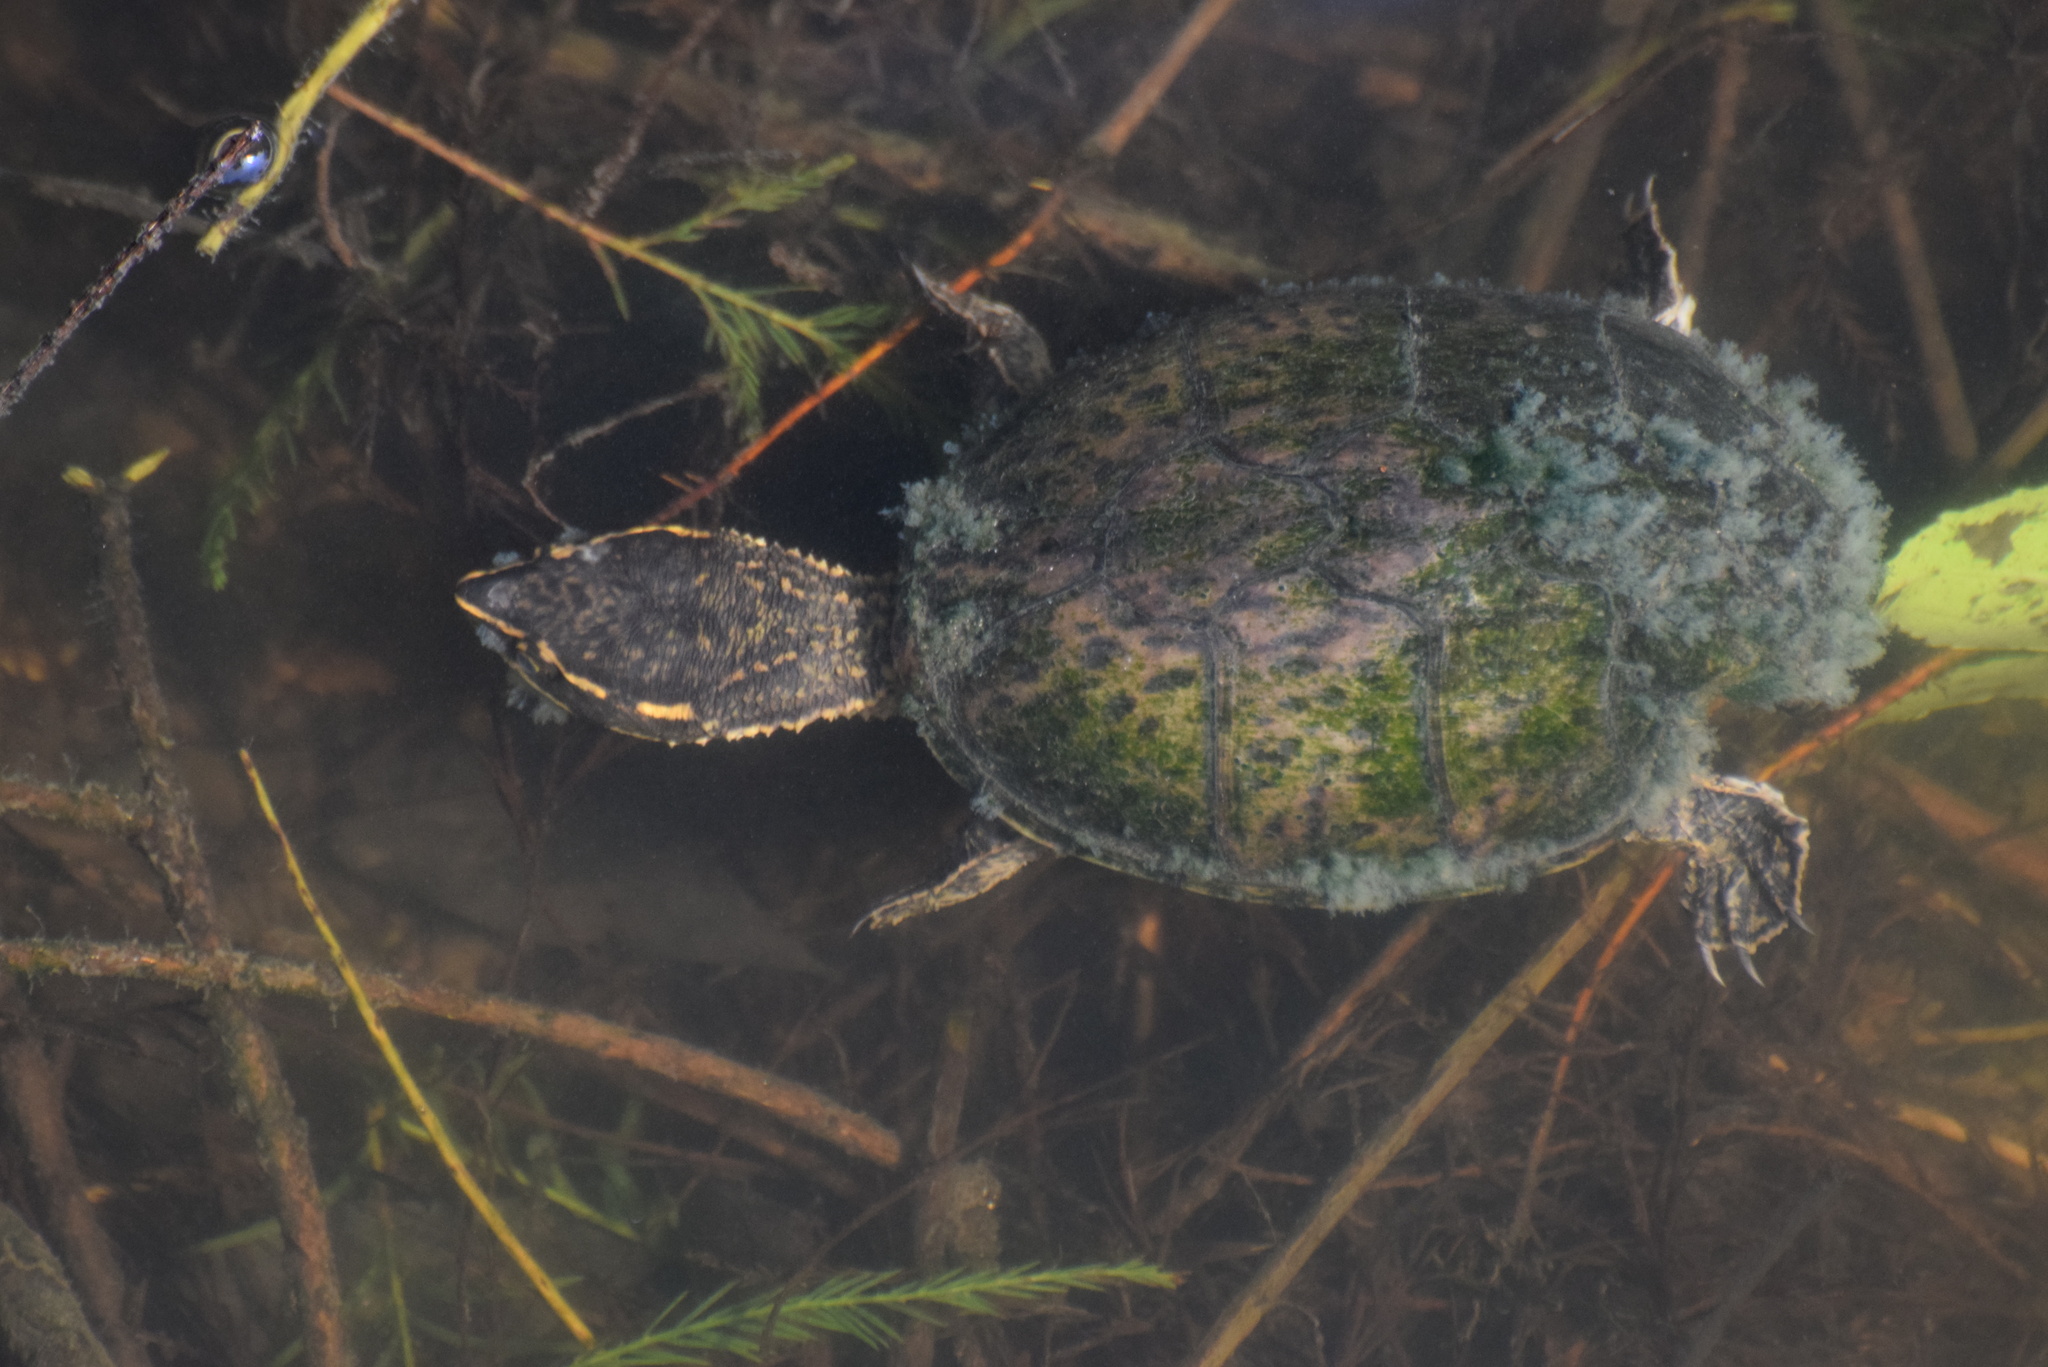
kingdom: Animalia
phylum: Chordata
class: Testudines
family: Kinosternidae
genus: Sternotherus
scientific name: Sternotherus odoratus
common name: Common musk turtle
